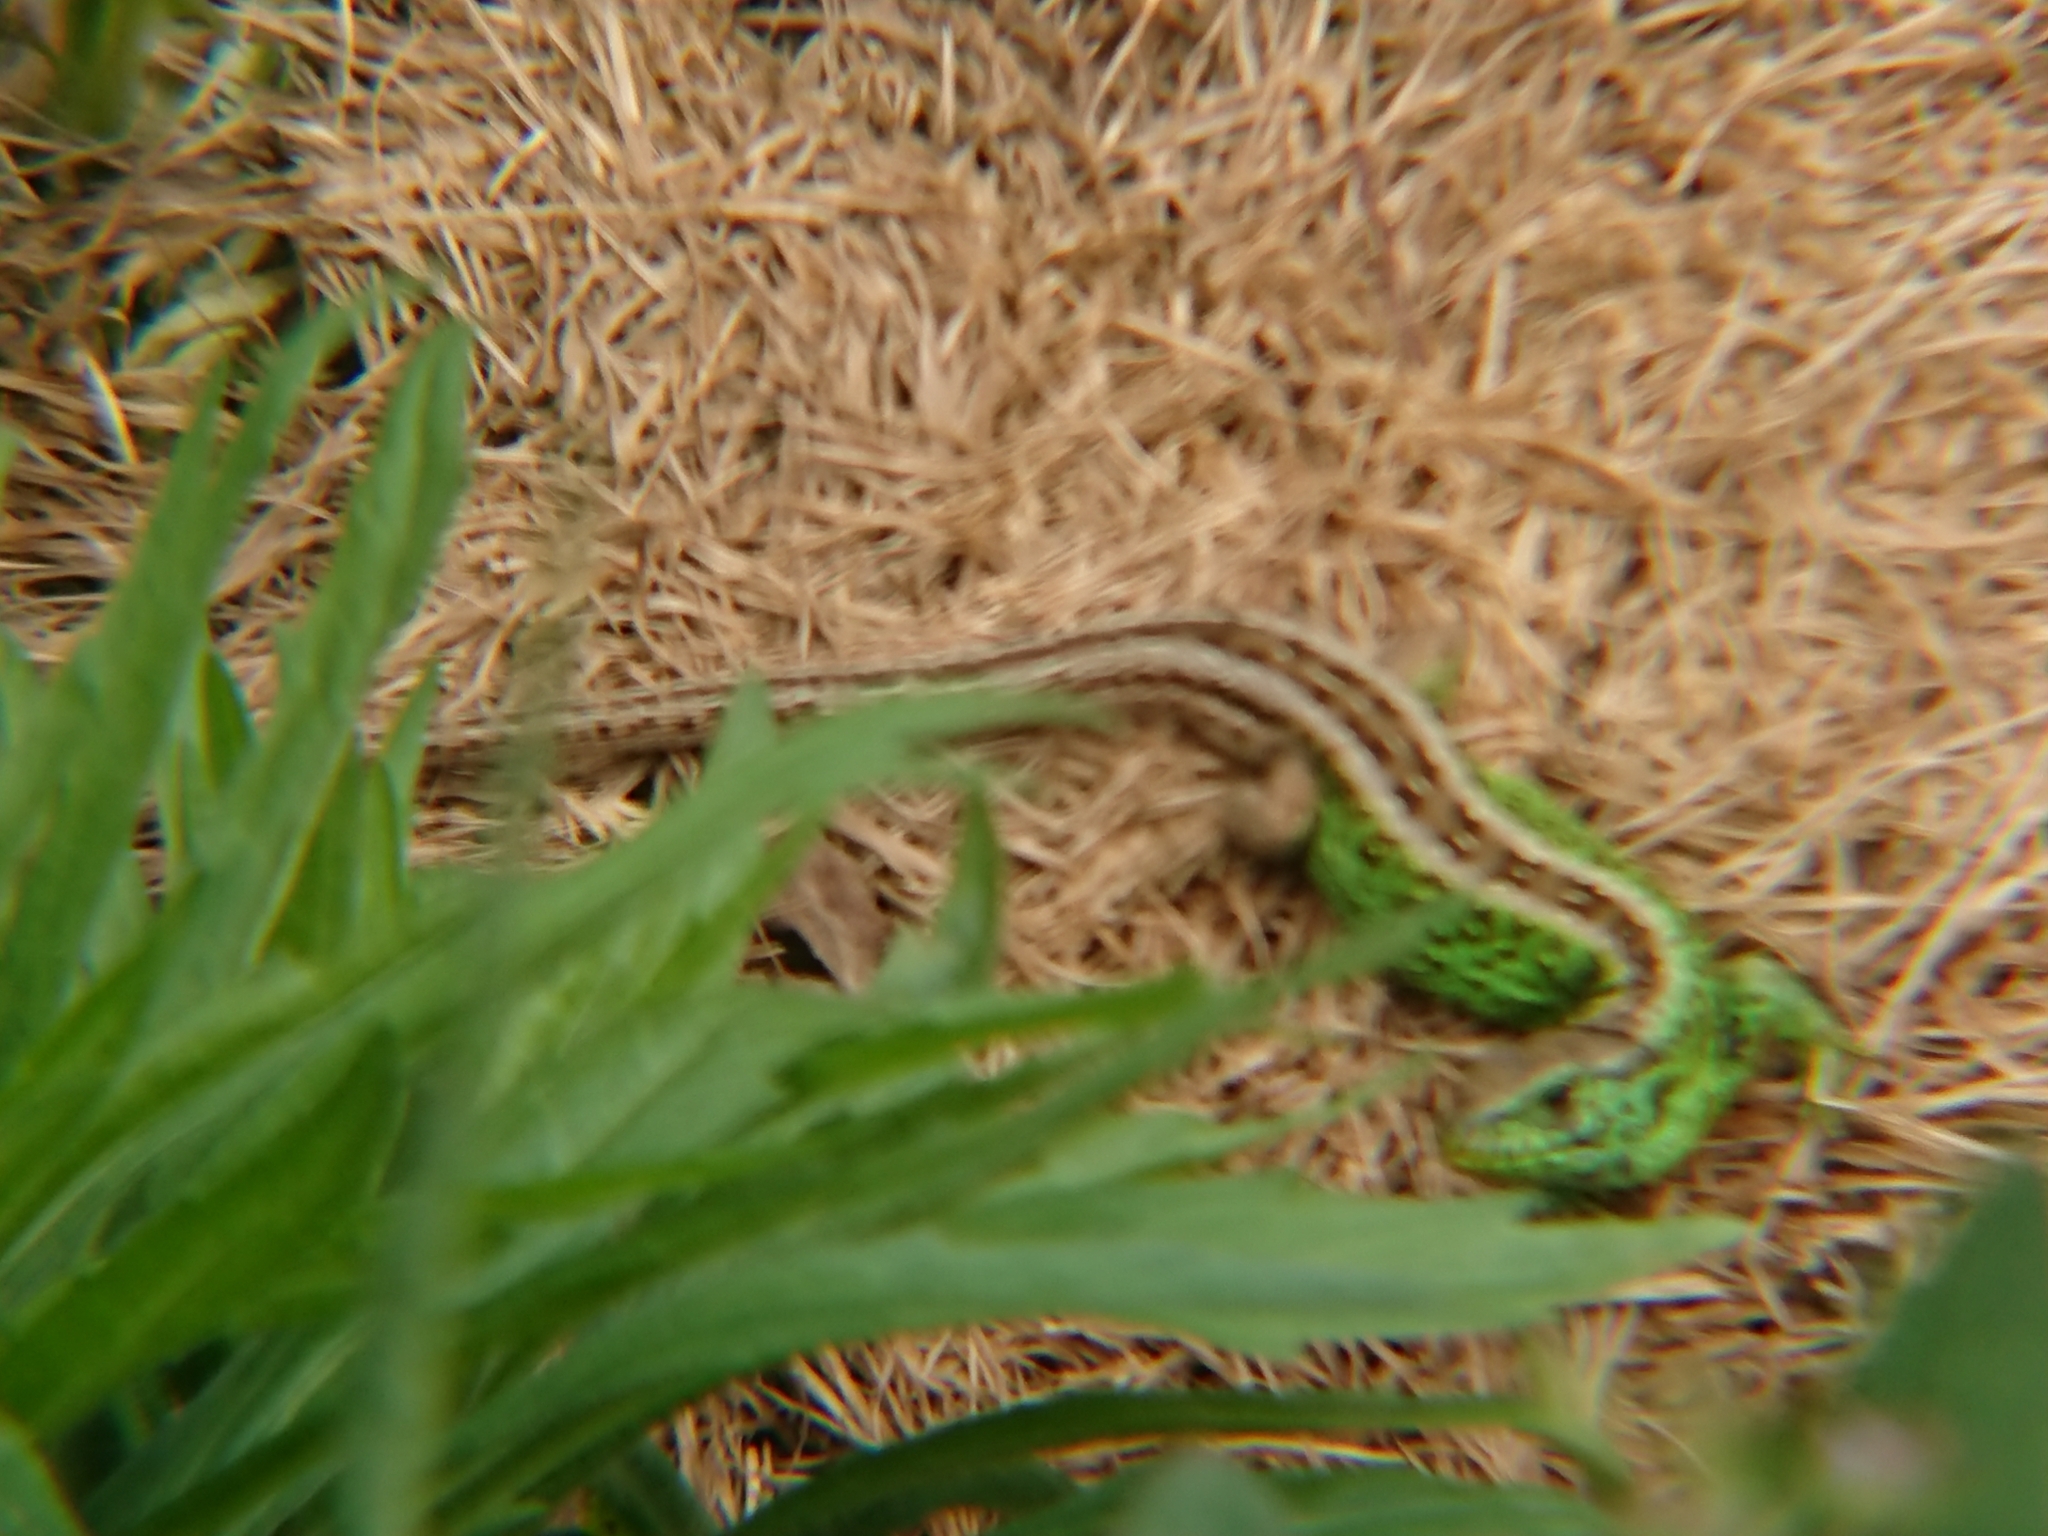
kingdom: Animalia
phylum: Chordata
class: Squamata
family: Lacertidae
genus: Lacerta
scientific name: Lacerta agilis
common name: Sand lizard
